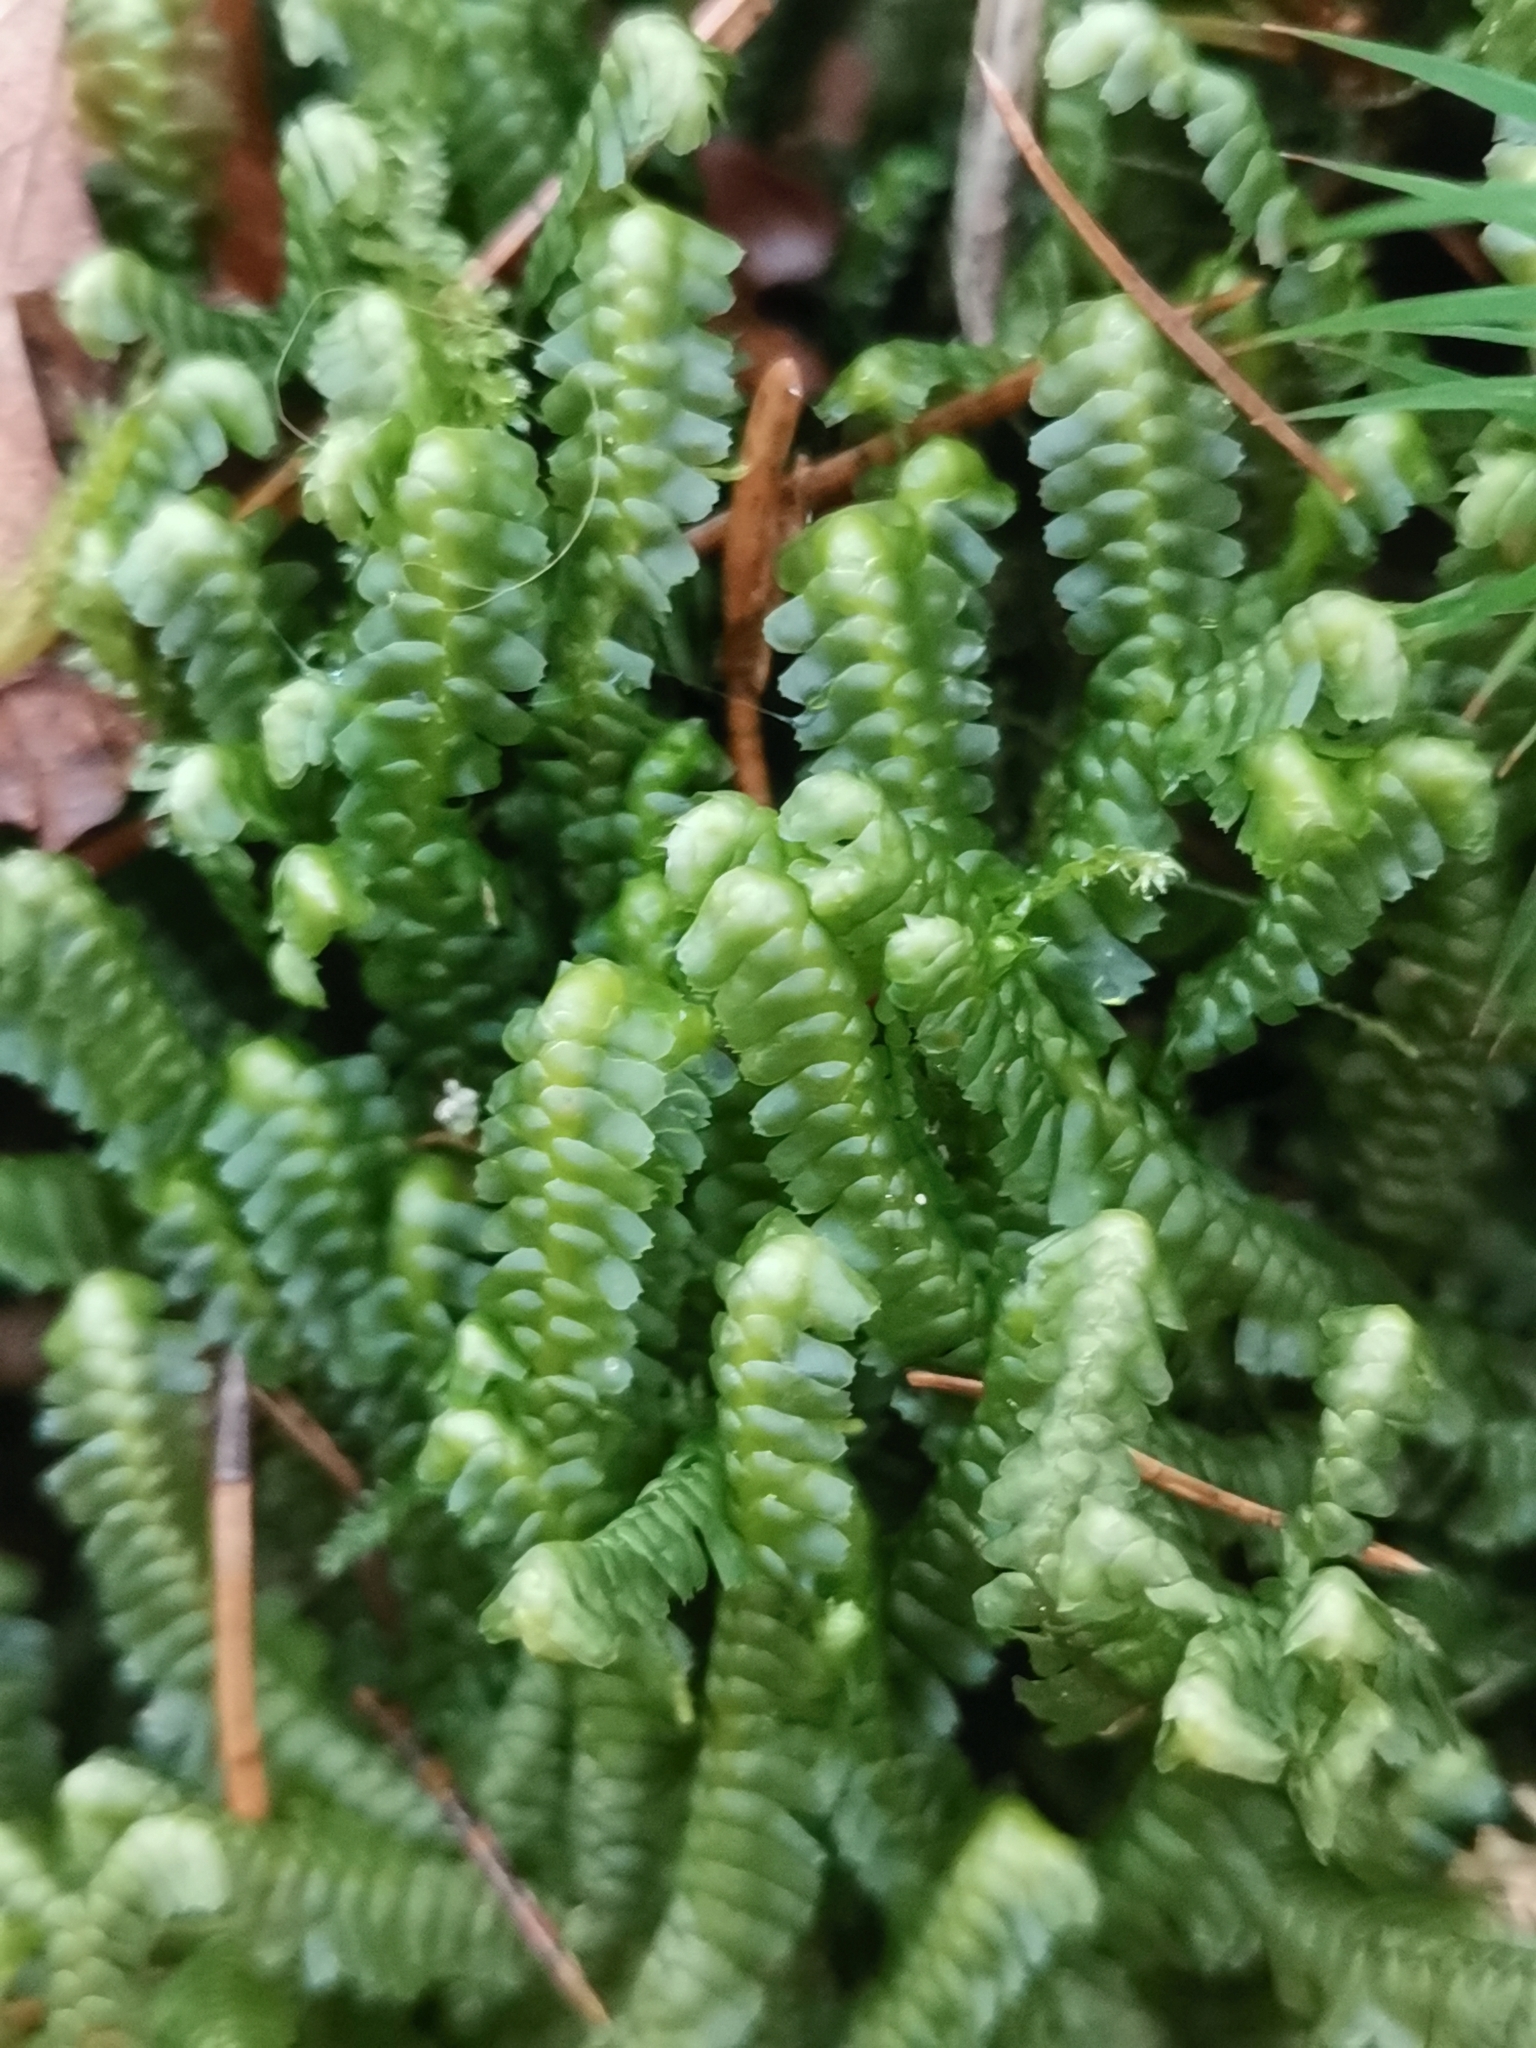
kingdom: Plantae
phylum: Marchantiophyta
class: Jungermanniopsida
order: Jungermanniales
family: Lepidoziaceae
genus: Bazzania
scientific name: Bazzania trilobata
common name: Three-lobed whipwort
